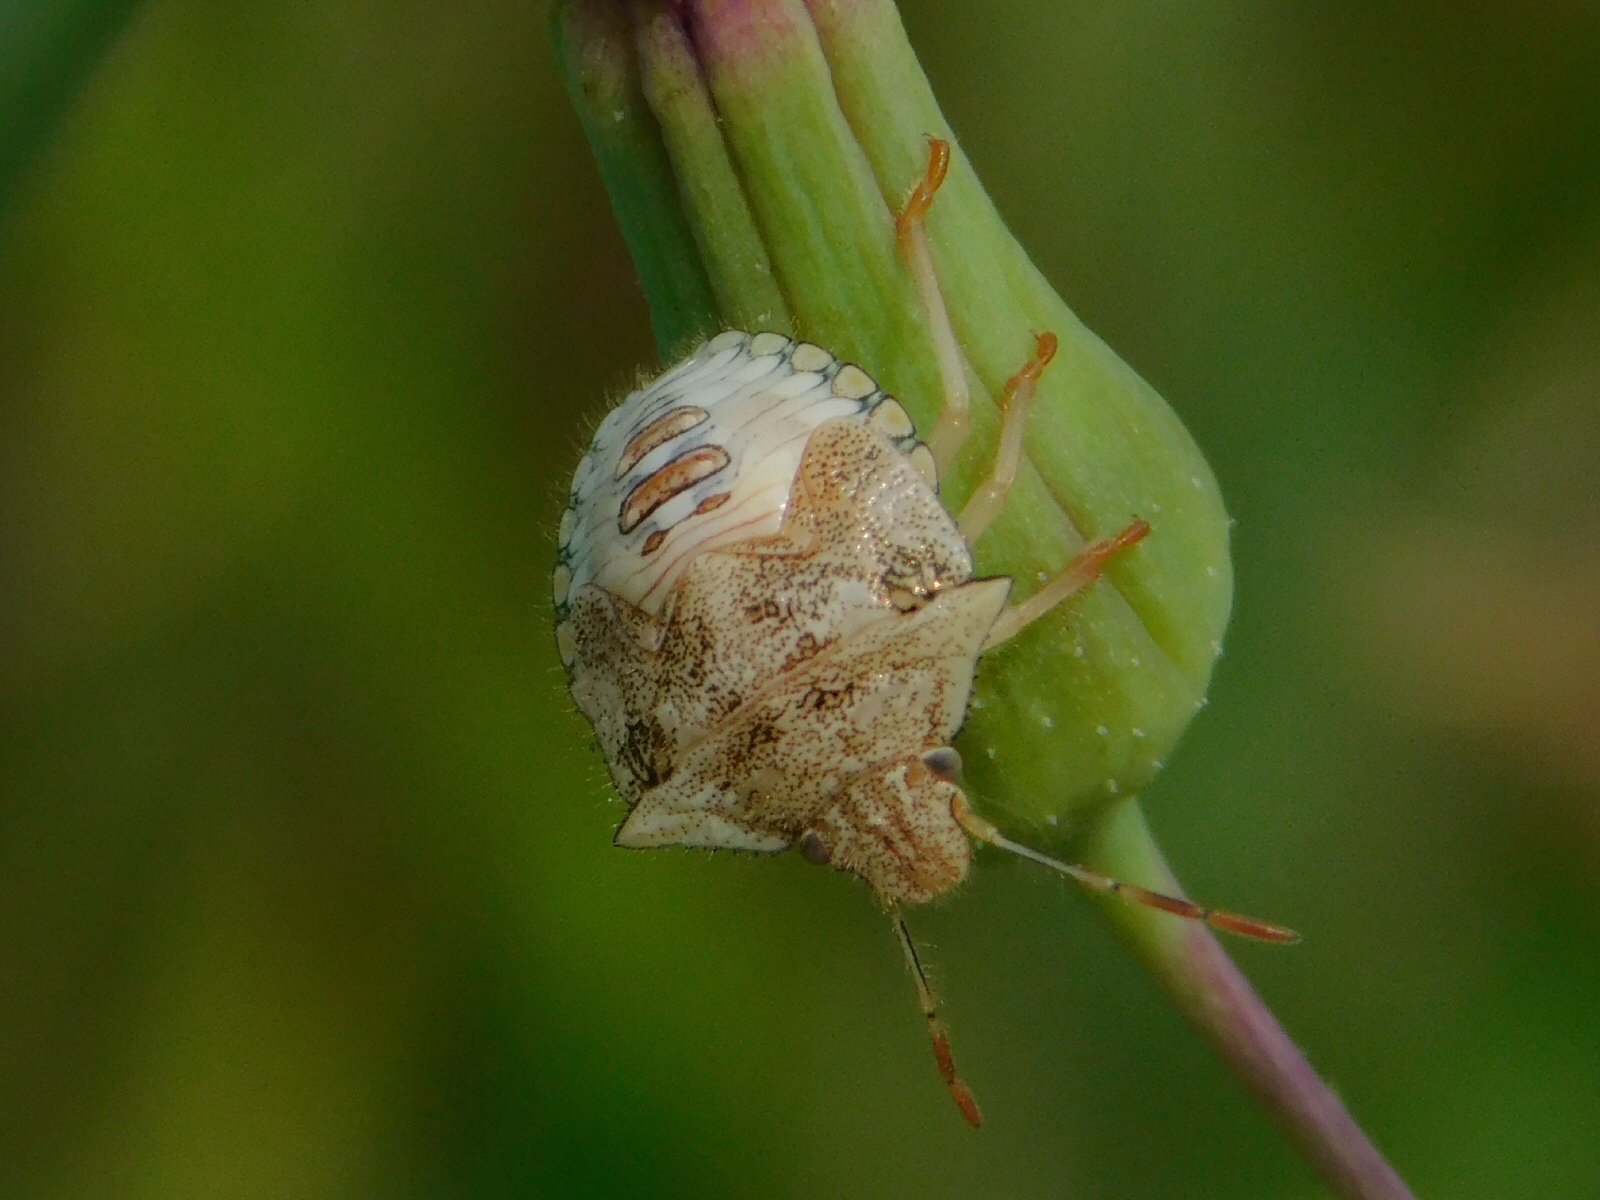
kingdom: Animalia
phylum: Arthropoda
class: Insecta
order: Hemiptera
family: Pentatomidae
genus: Thyanta
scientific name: Thyanta perditor
